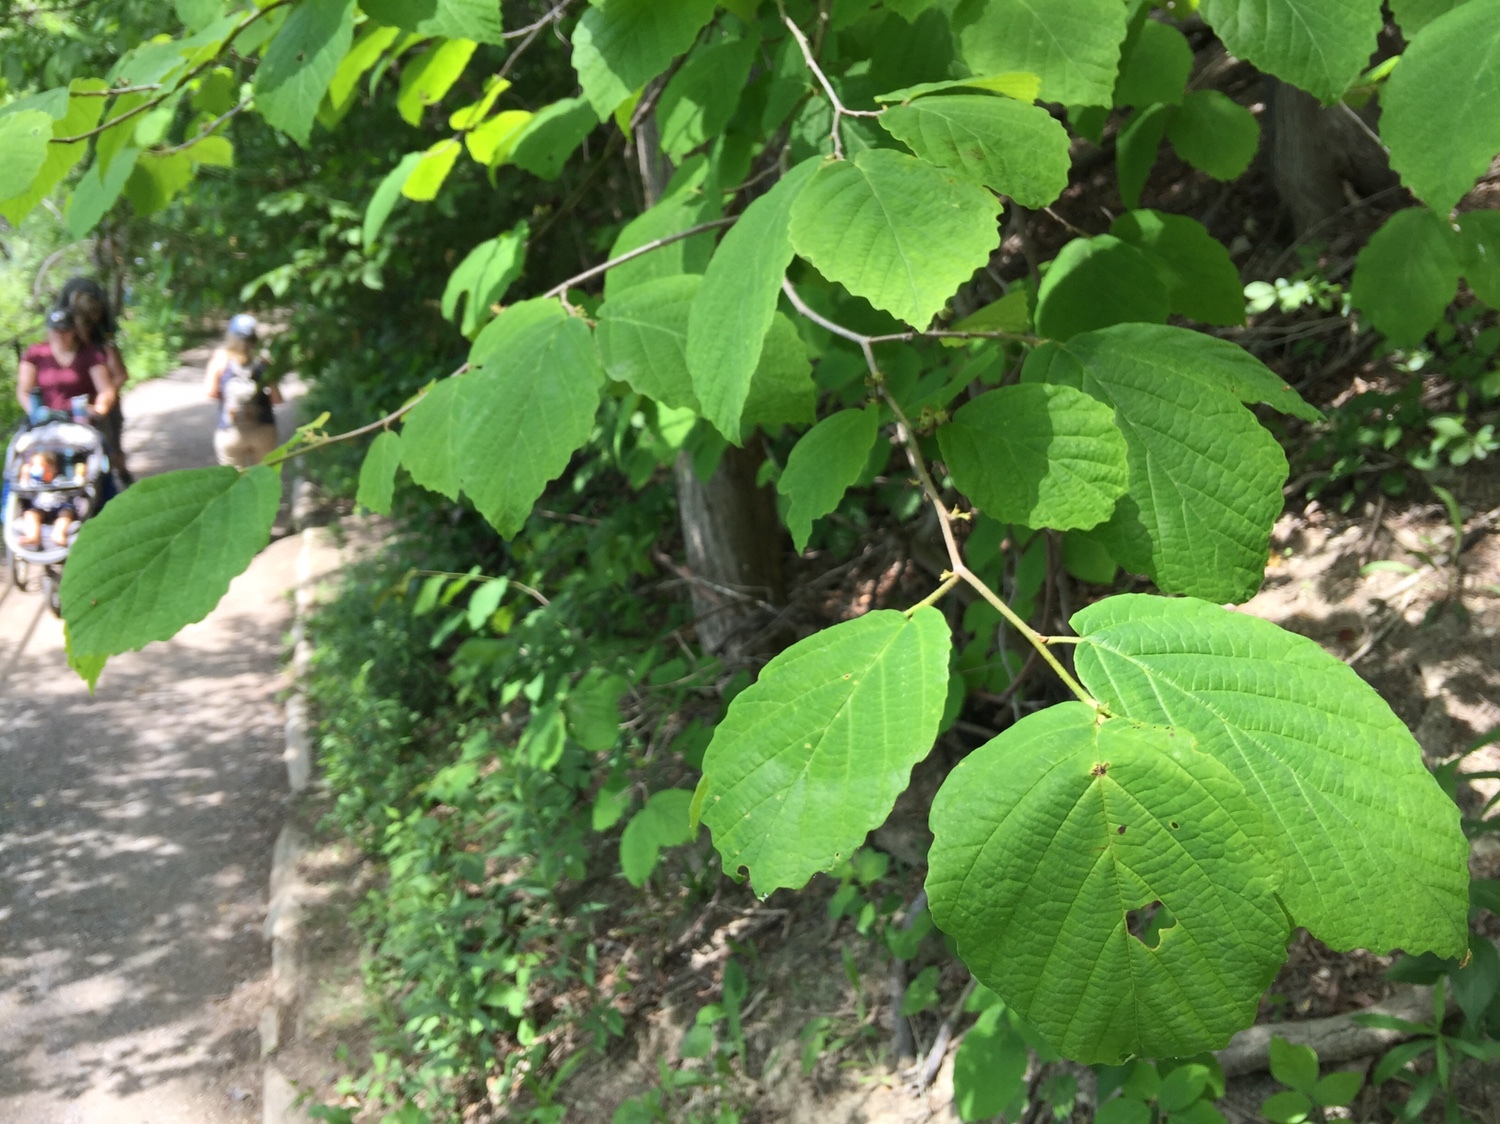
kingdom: Plantae
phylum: Tracheophyta
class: Magnoliopsida
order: Saxifragales
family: Hamamelidaceae
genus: Hamamelis
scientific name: Hamamelis virginiana
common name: Witch-hazel
